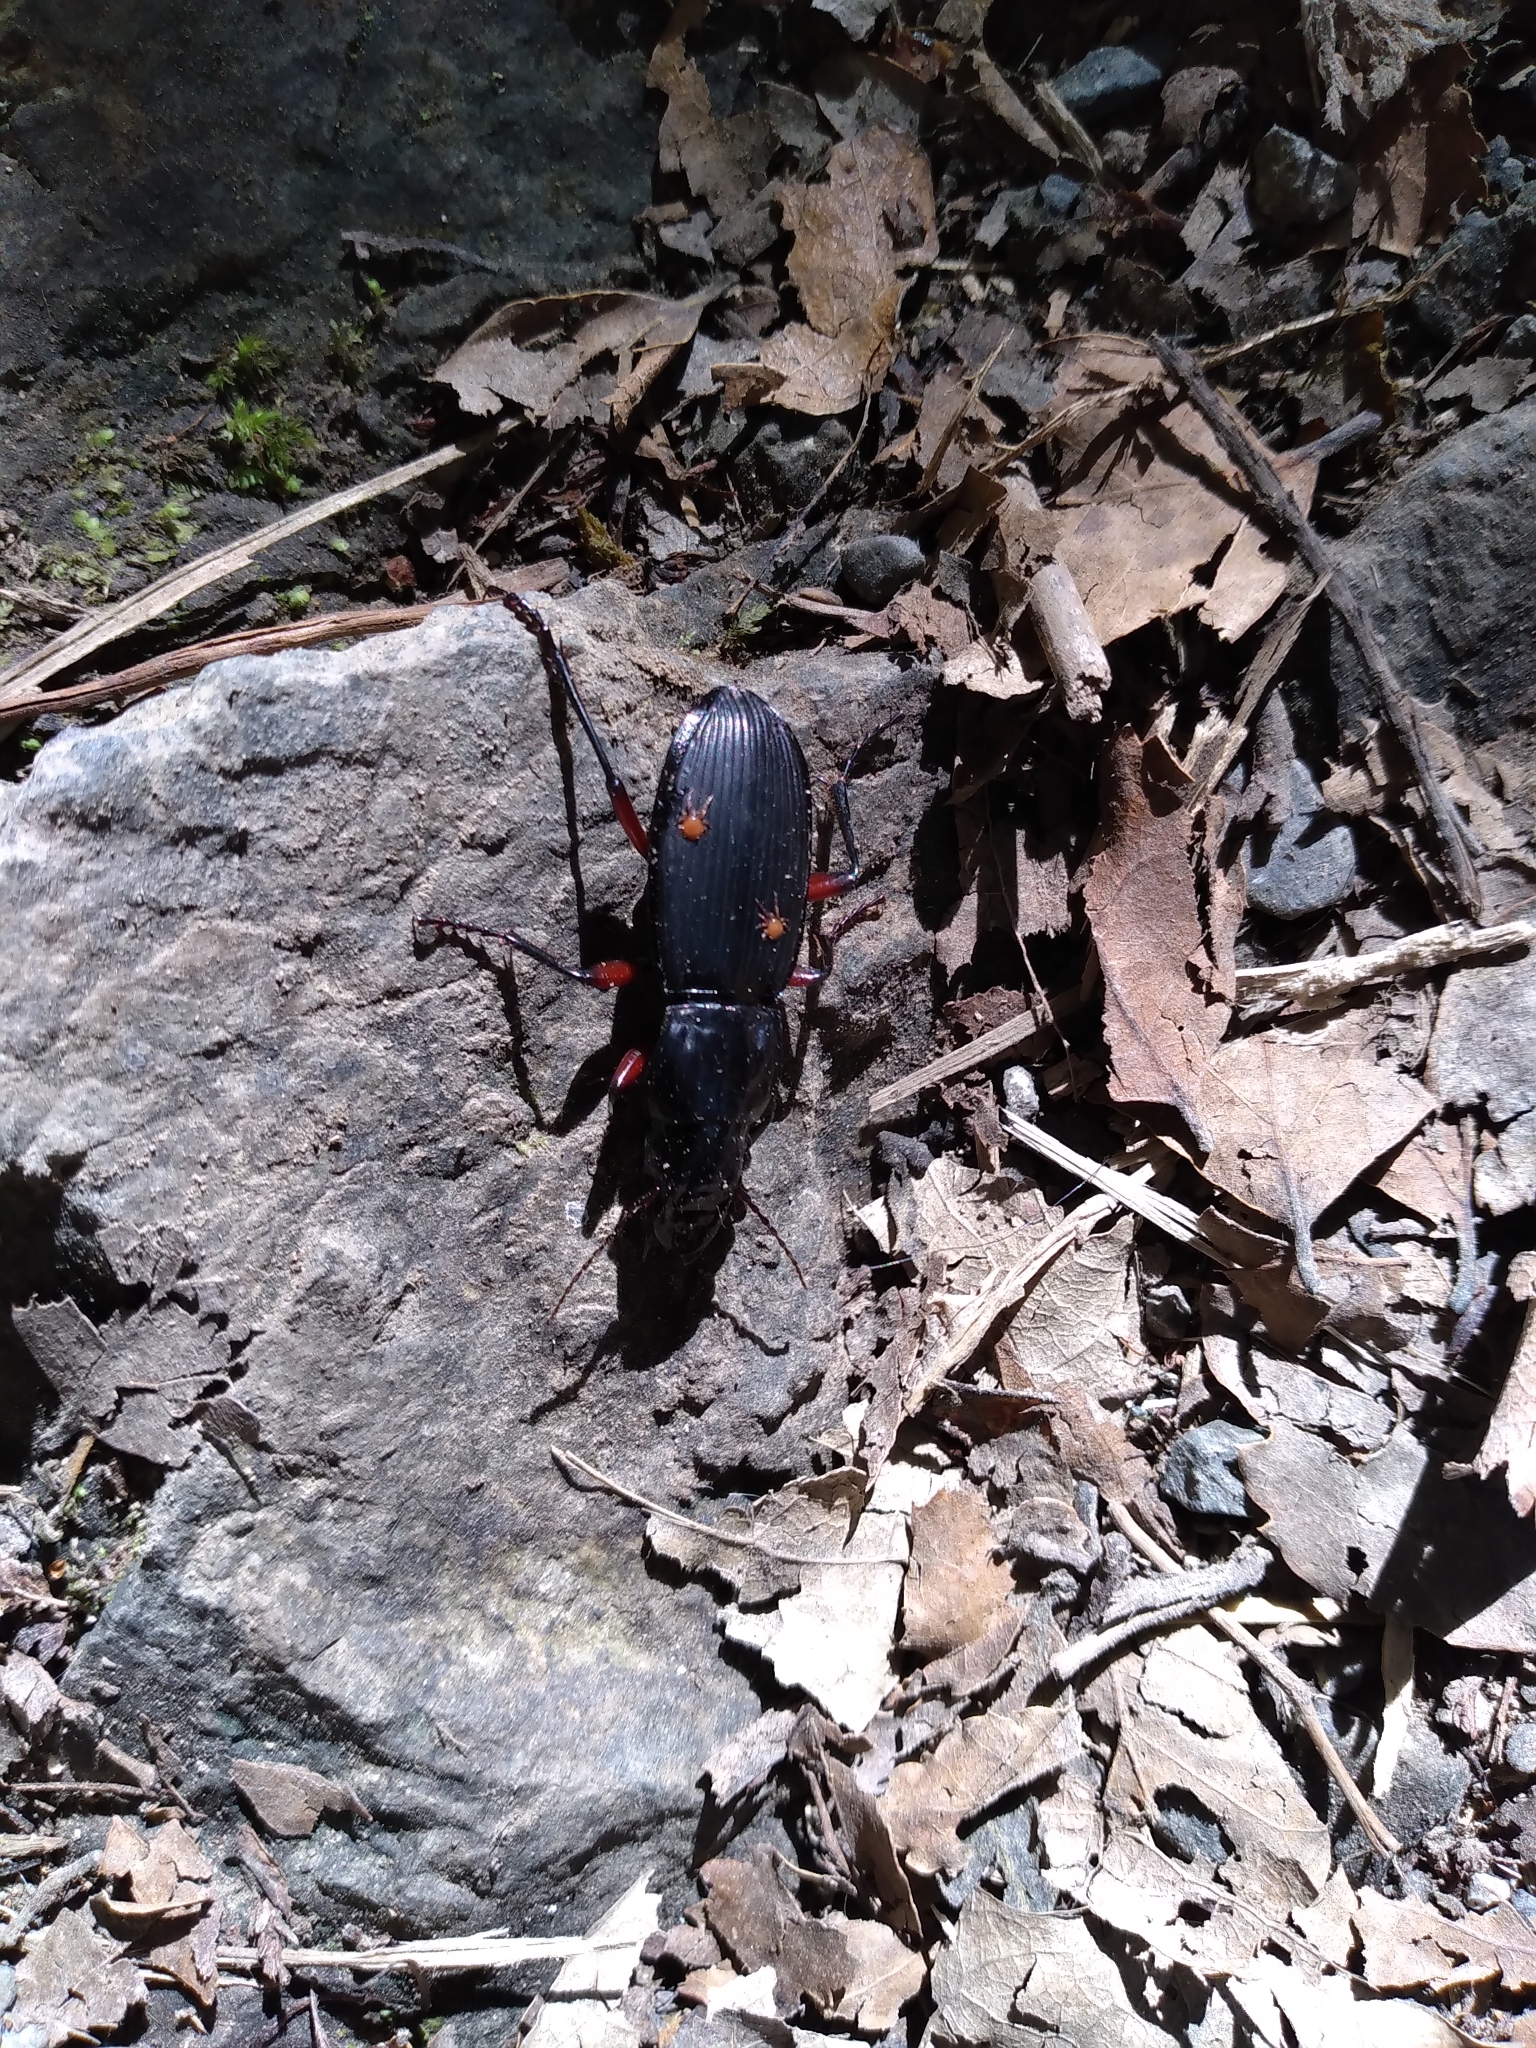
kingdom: Animalia
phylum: Arthropoda
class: Insecta
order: Coleoptera
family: Carabidae
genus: Plocamostethus
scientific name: Plocamostethus planiusculus
